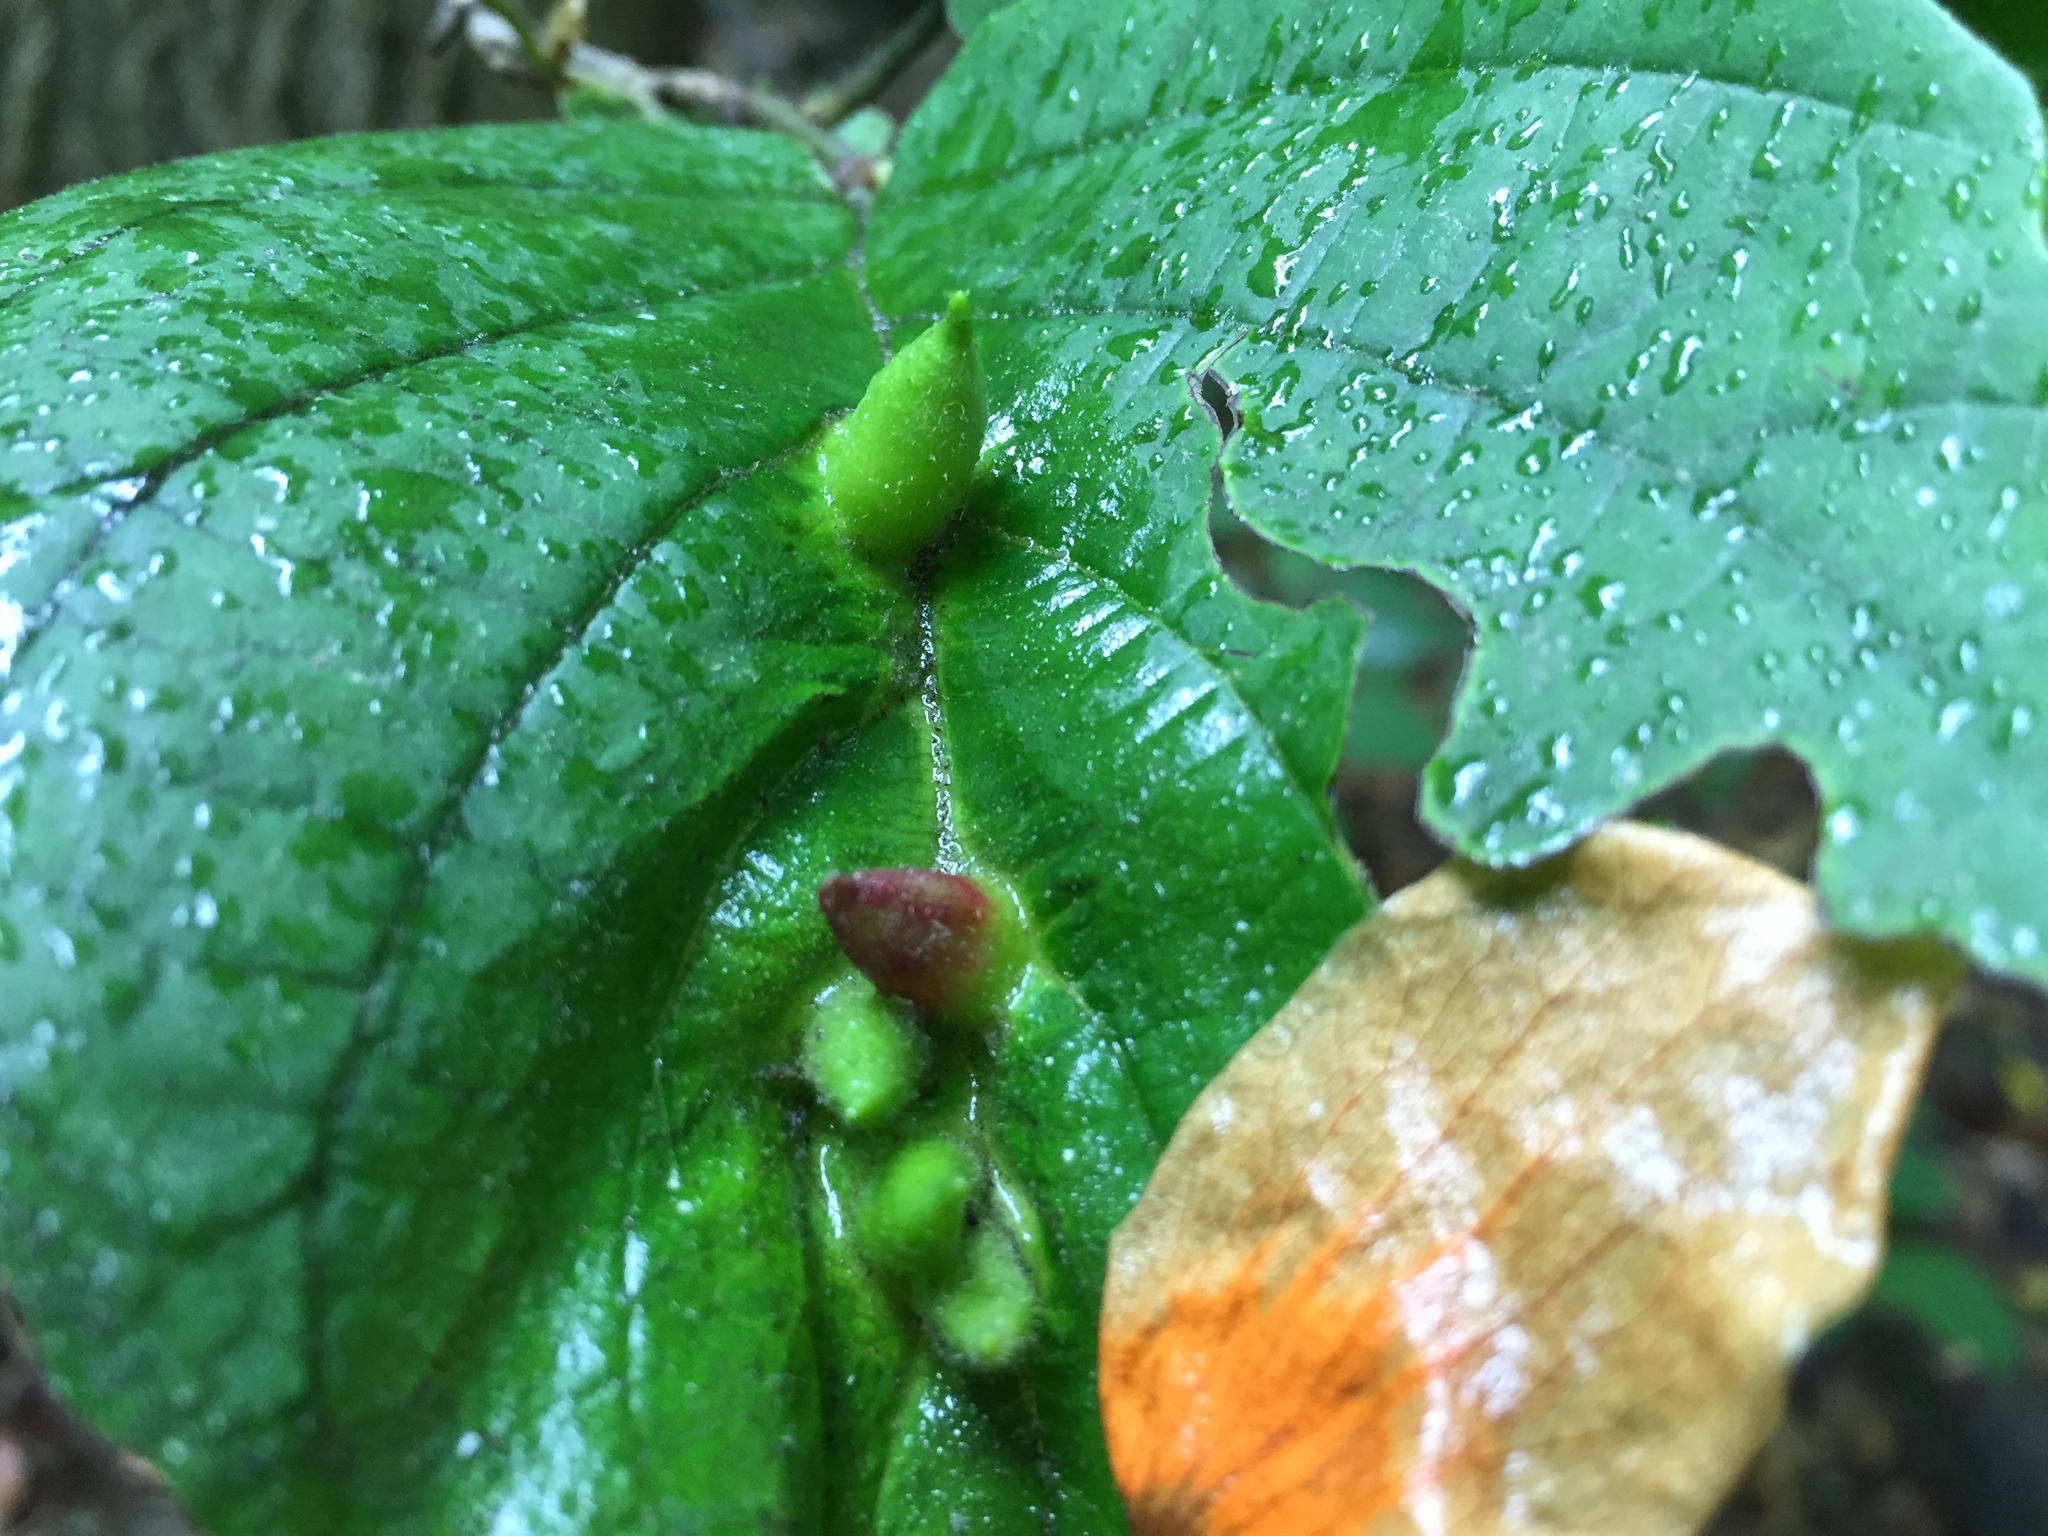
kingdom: Animalia
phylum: Arthropoda
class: Insecta
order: Hemiptera
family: Aphididae
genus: Hormaphis
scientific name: Hormaphis hamamelidis
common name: Witch-hazel cone gall aphid
